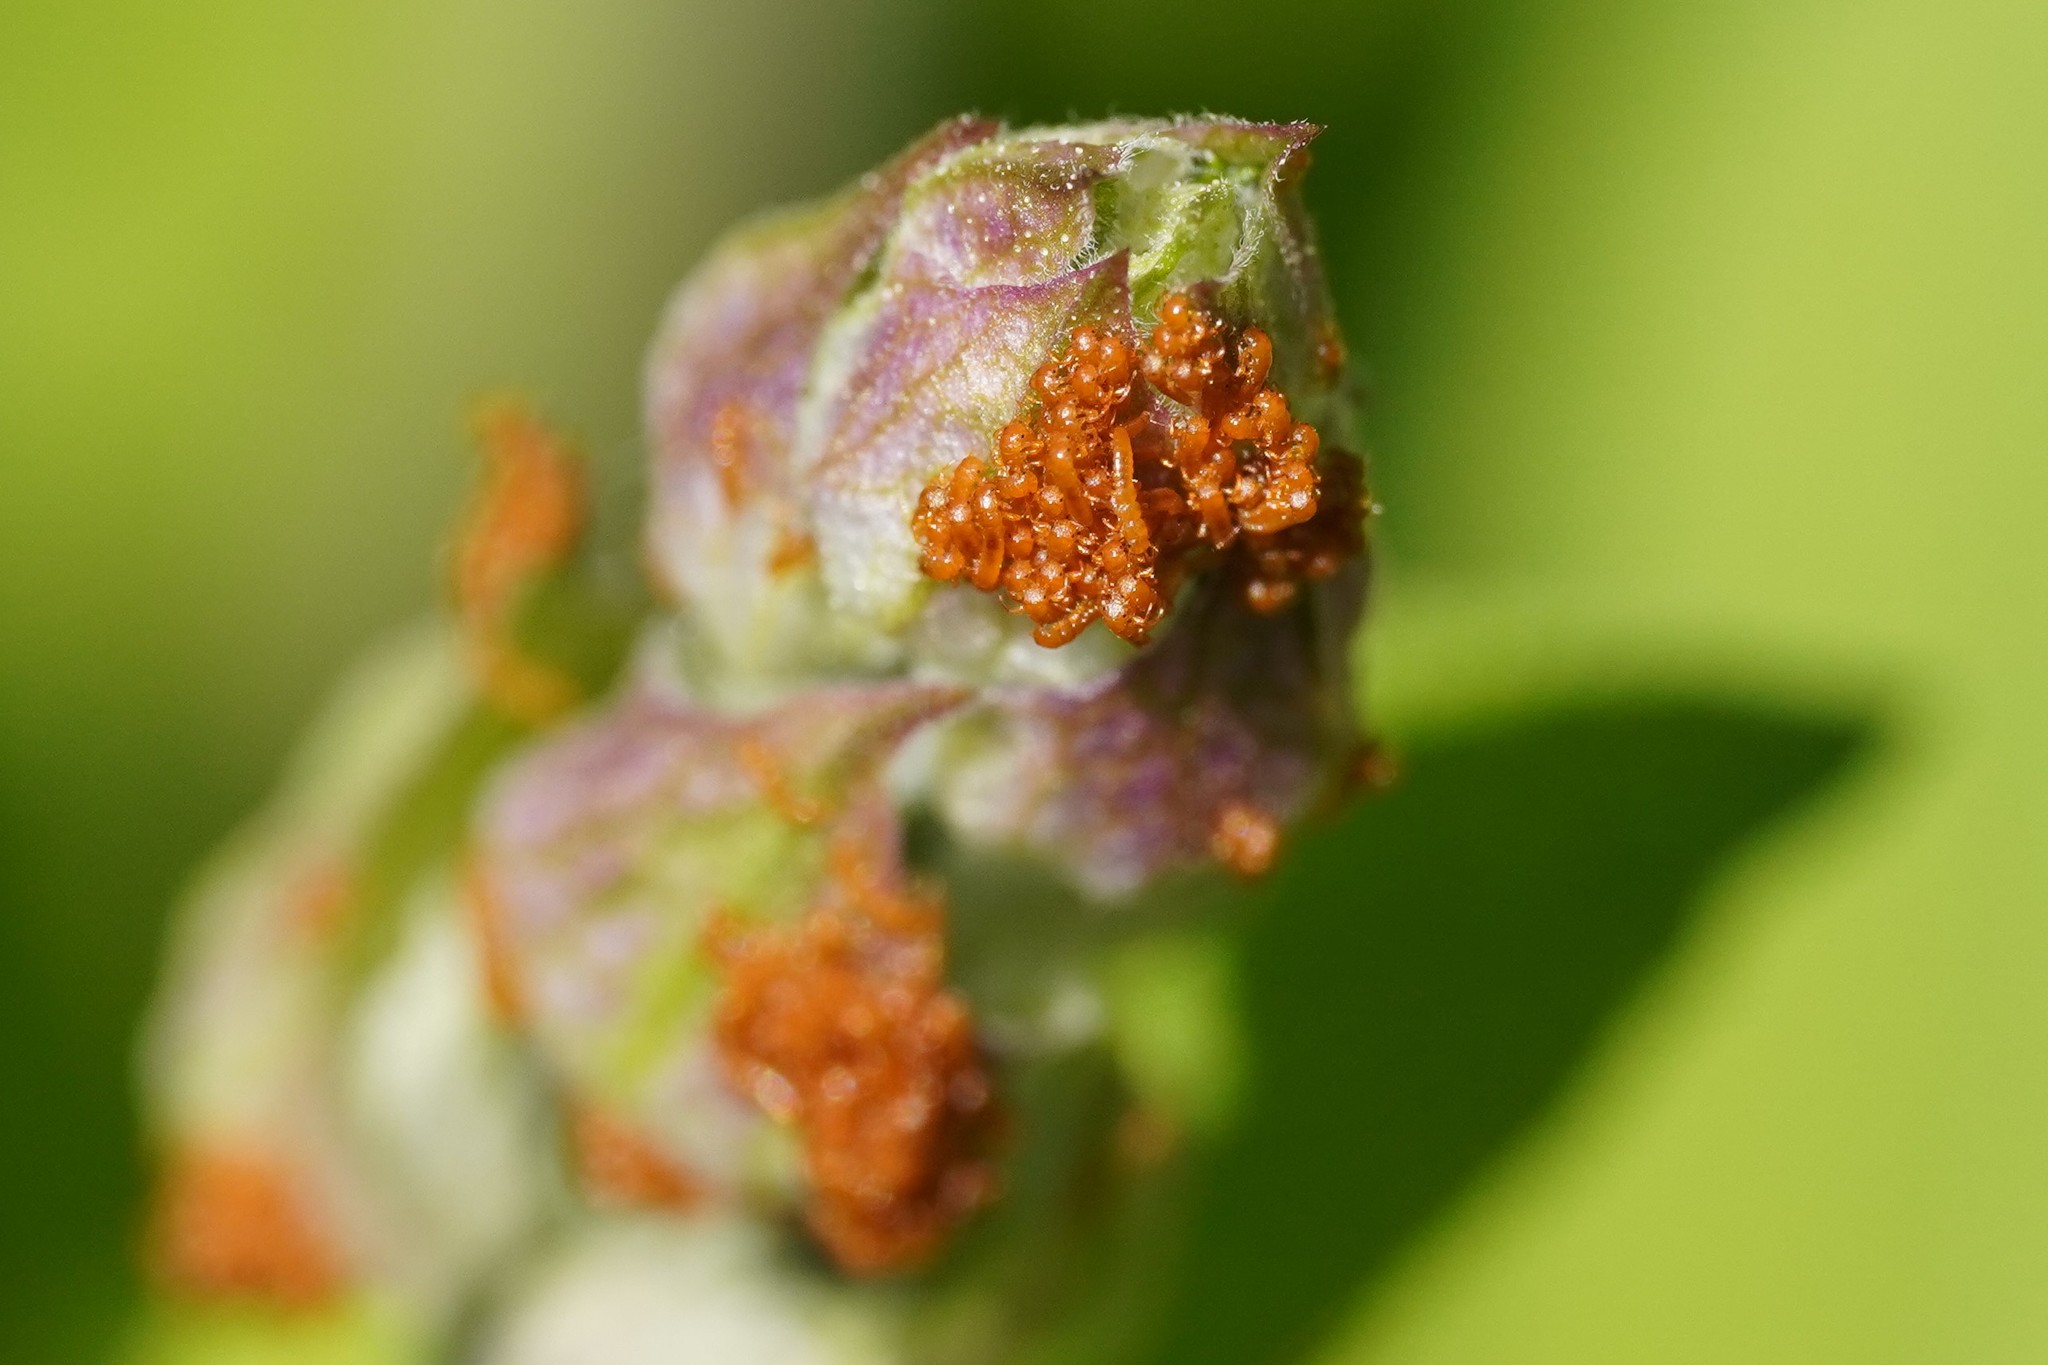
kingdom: Animalia
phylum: Arthropoda
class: Insecta
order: Coleoptera
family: Meloidae
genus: Meloe
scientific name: Meloe proscarabaeus
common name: Black oil-beetle
